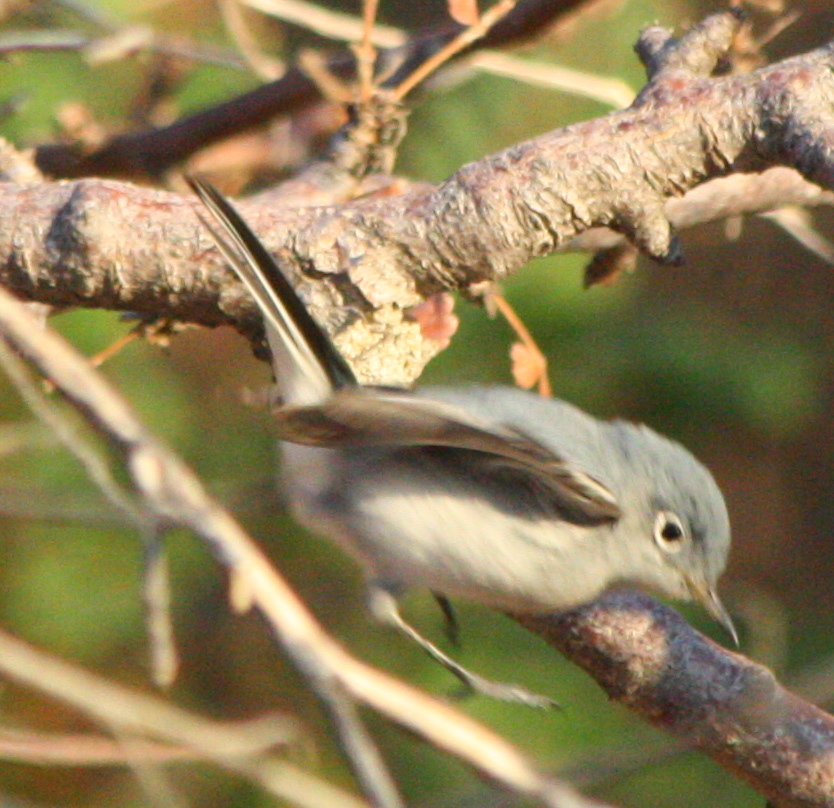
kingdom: Animalia
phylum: Chordata
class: Aves
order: Passeriformes
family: Polioptilidae
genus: Polioptila
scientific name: Polioptila caerulea
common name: Blue-gray gnatcatcher
